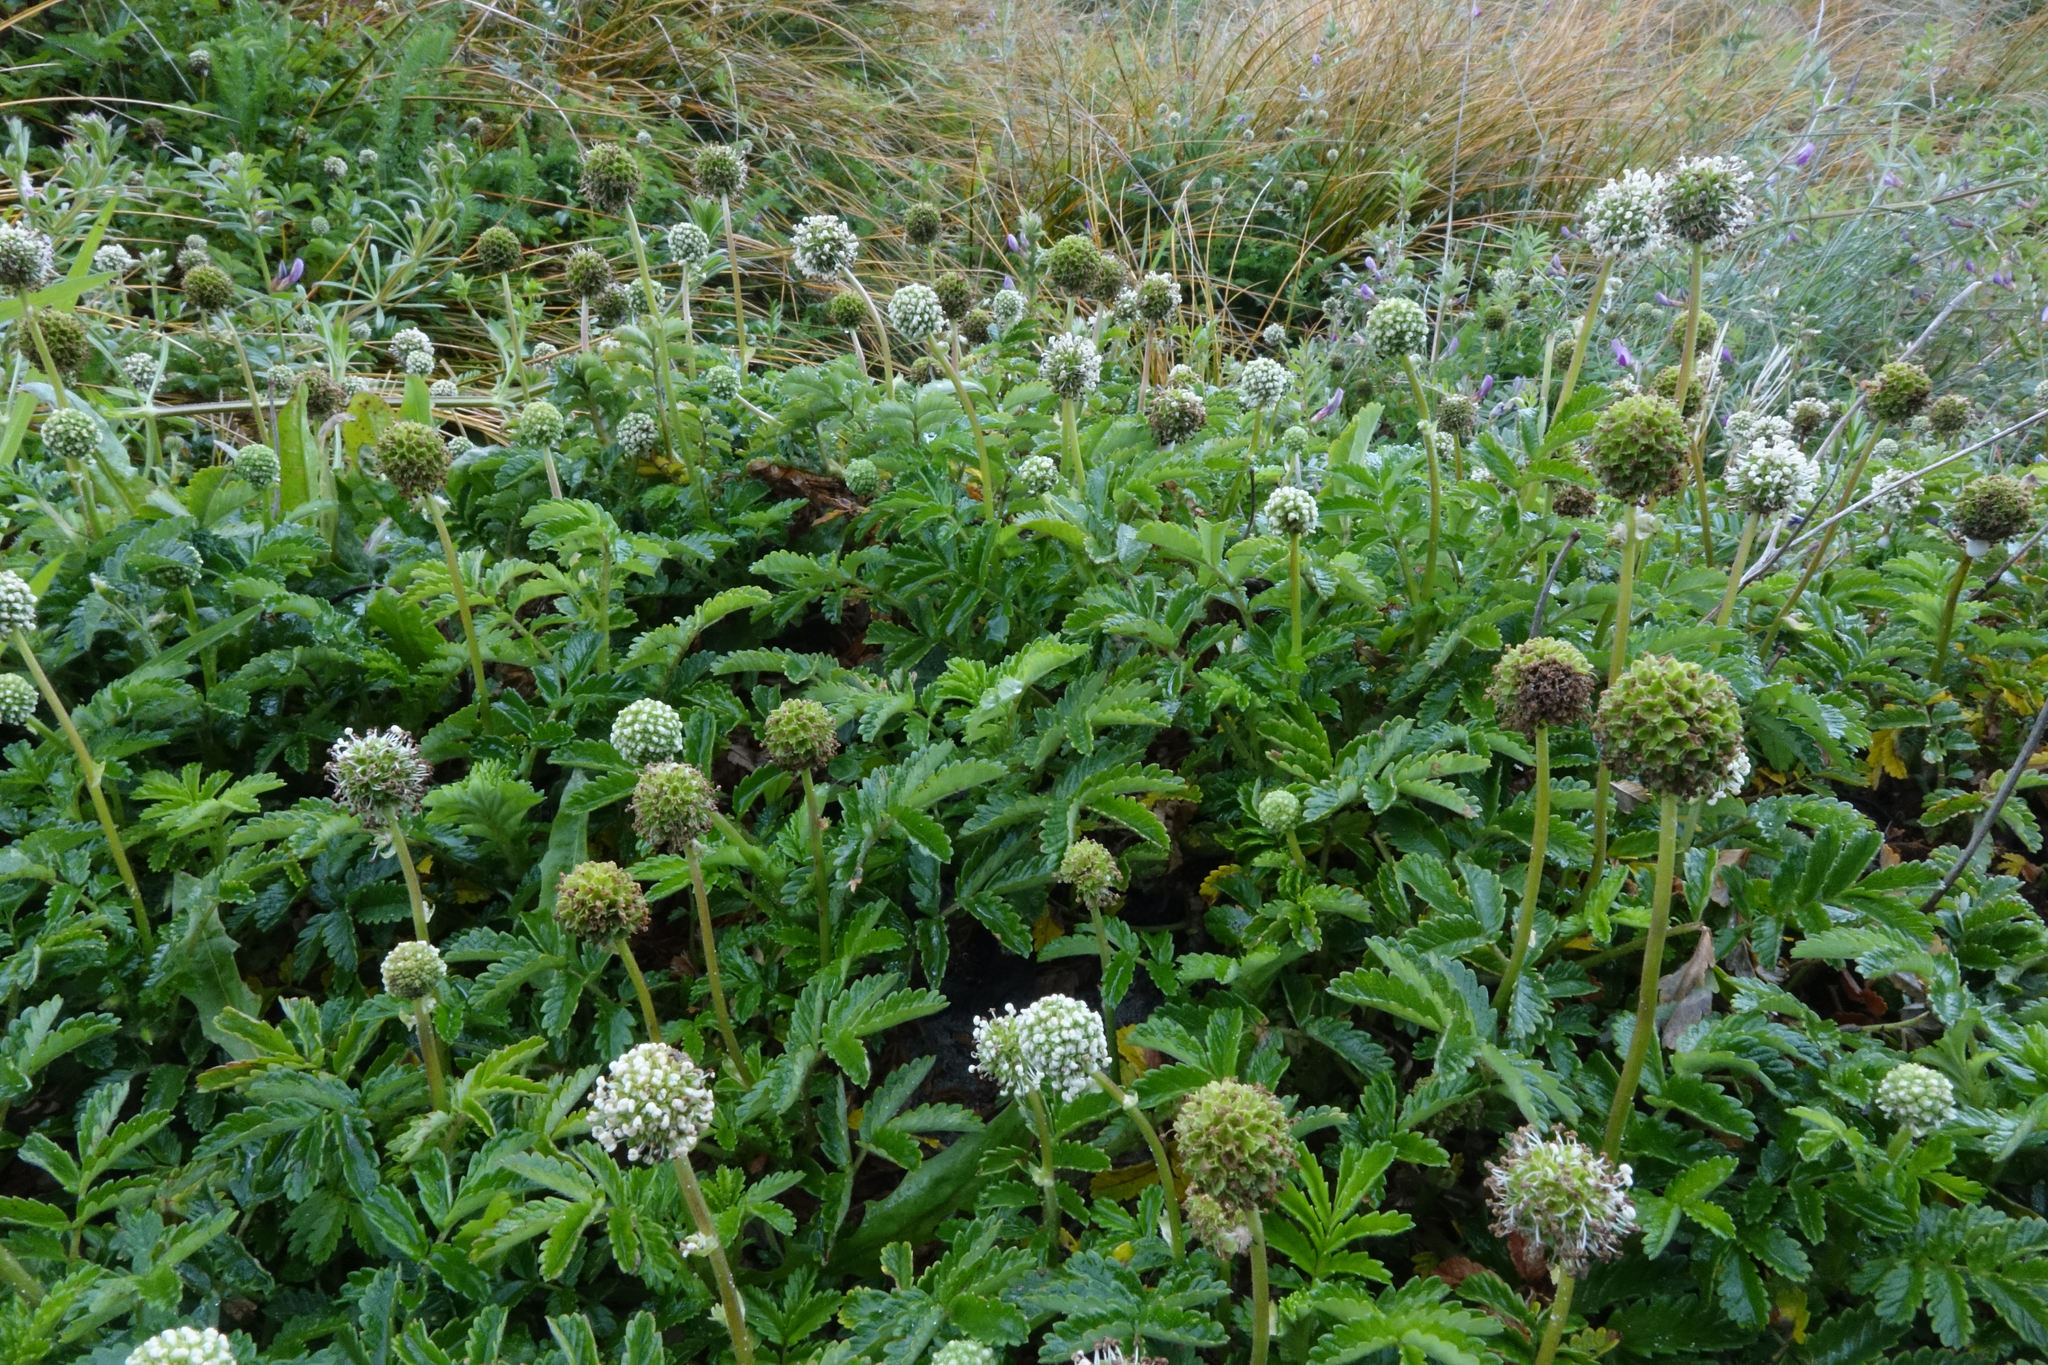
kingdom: Plantae
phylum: Tracheophyta
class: Magnoliopsida
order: Rosales
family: Rosaceae
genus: Acaena
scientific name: Acaena pallida
